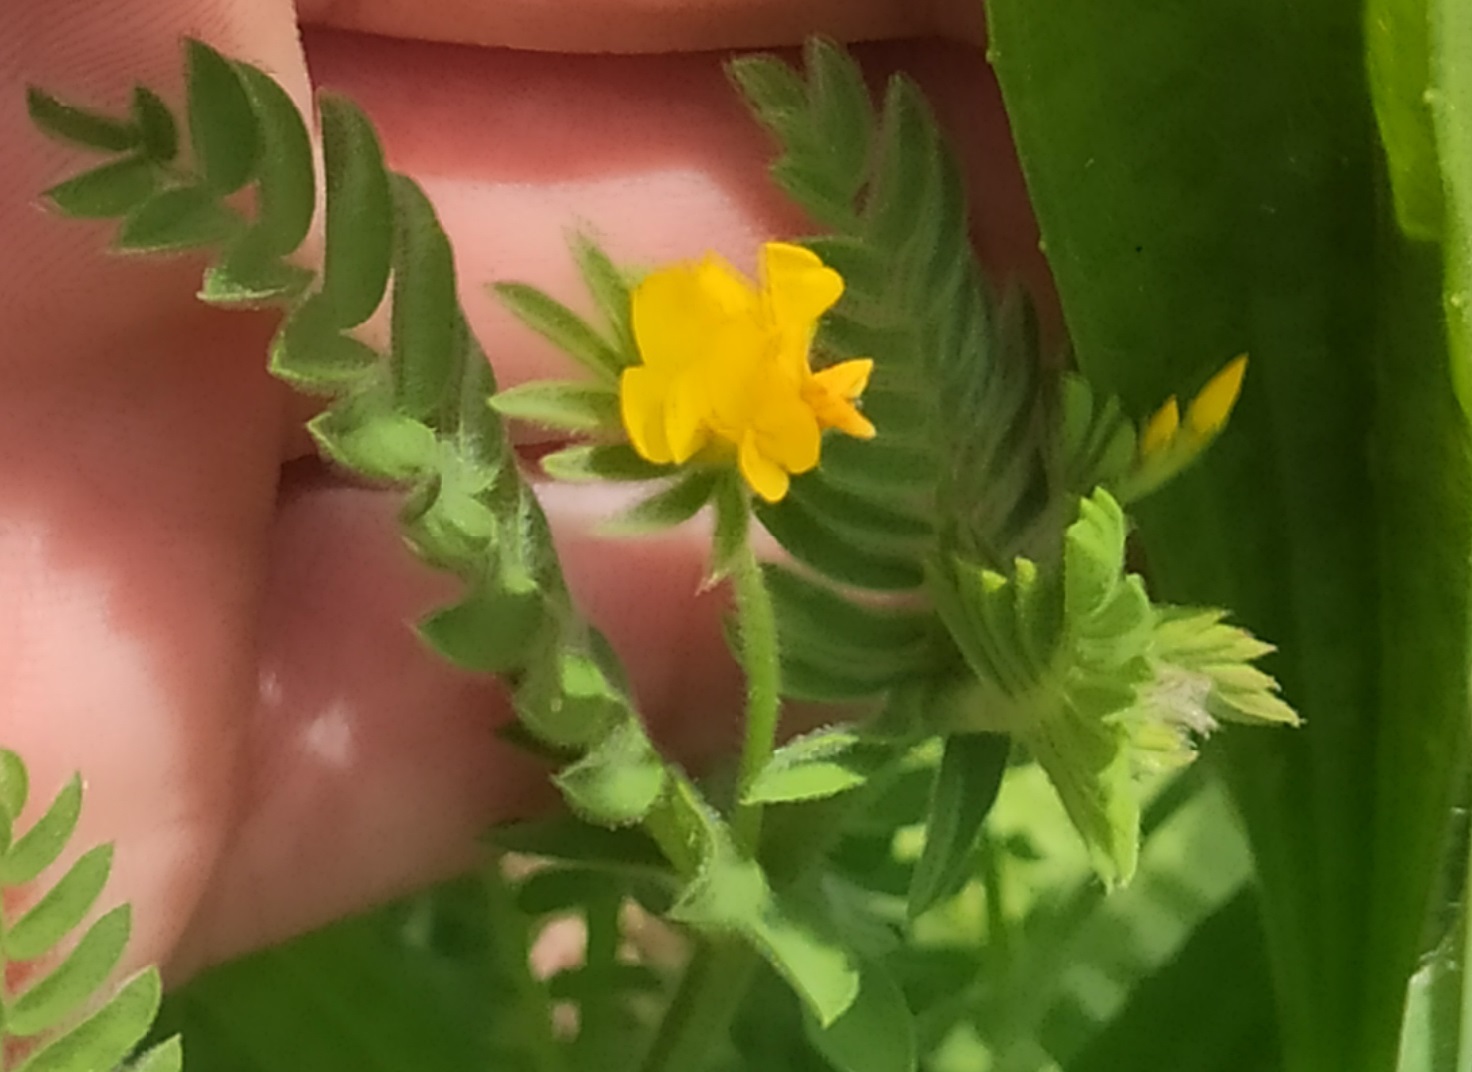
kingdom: Plantae
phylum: Tracheophyta
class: Magnoliopsida
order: Fabales
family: Fabaceae
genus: Ornithopus
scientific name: Ornithopus compressus
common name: Yellow serradella
